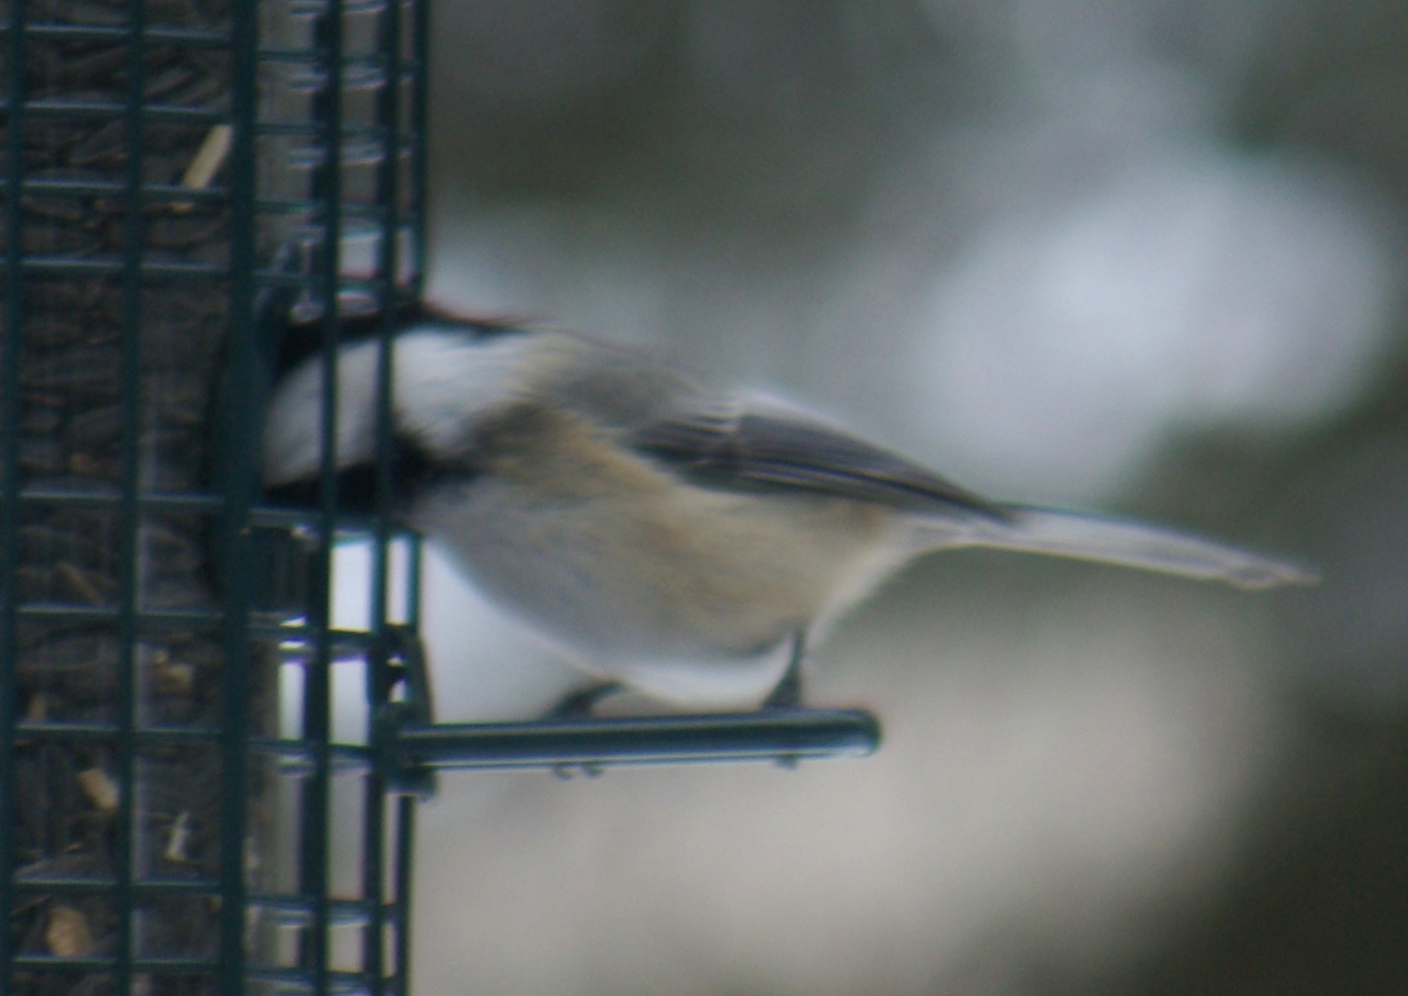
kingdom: Animalia
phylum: Chordata
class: Aves
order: Passeriformes
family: Paridae
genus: Poecile
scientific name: Poecile atricapillus
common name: Black-capped chickadee
